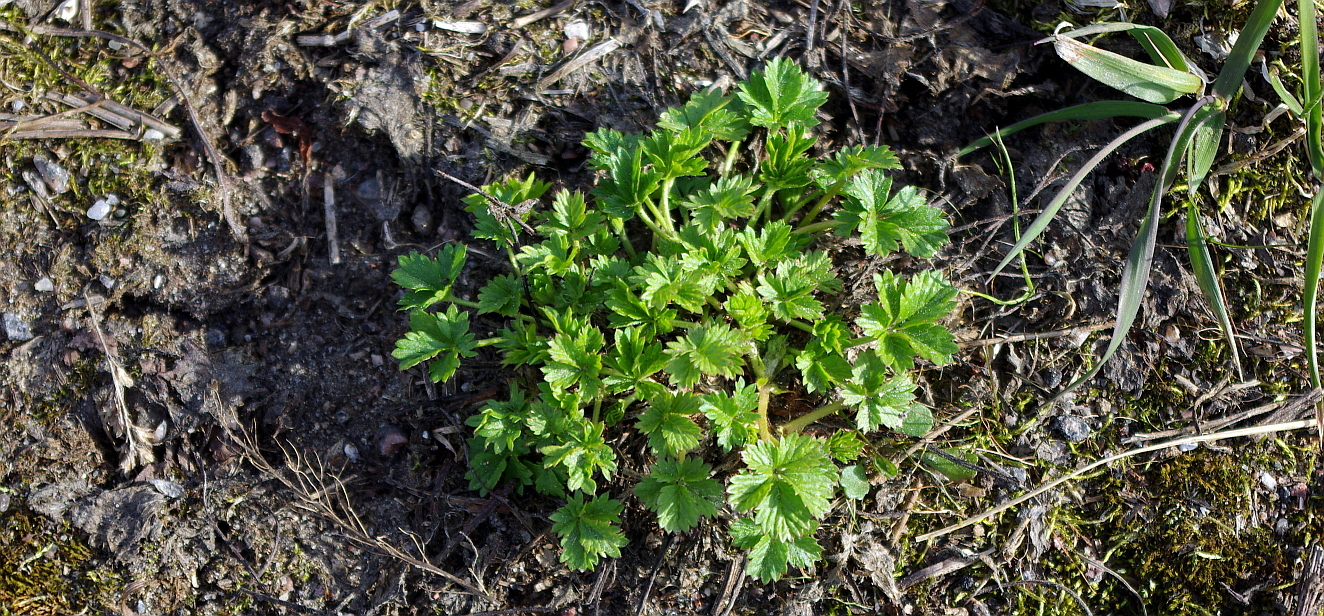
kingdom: Plantae
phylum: Tracheophyta
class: Magnoliopsida
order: Rosales
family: Rosaceae
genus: Potentilla
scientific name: Potentilla intermedia
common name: Downy cinquefoil
